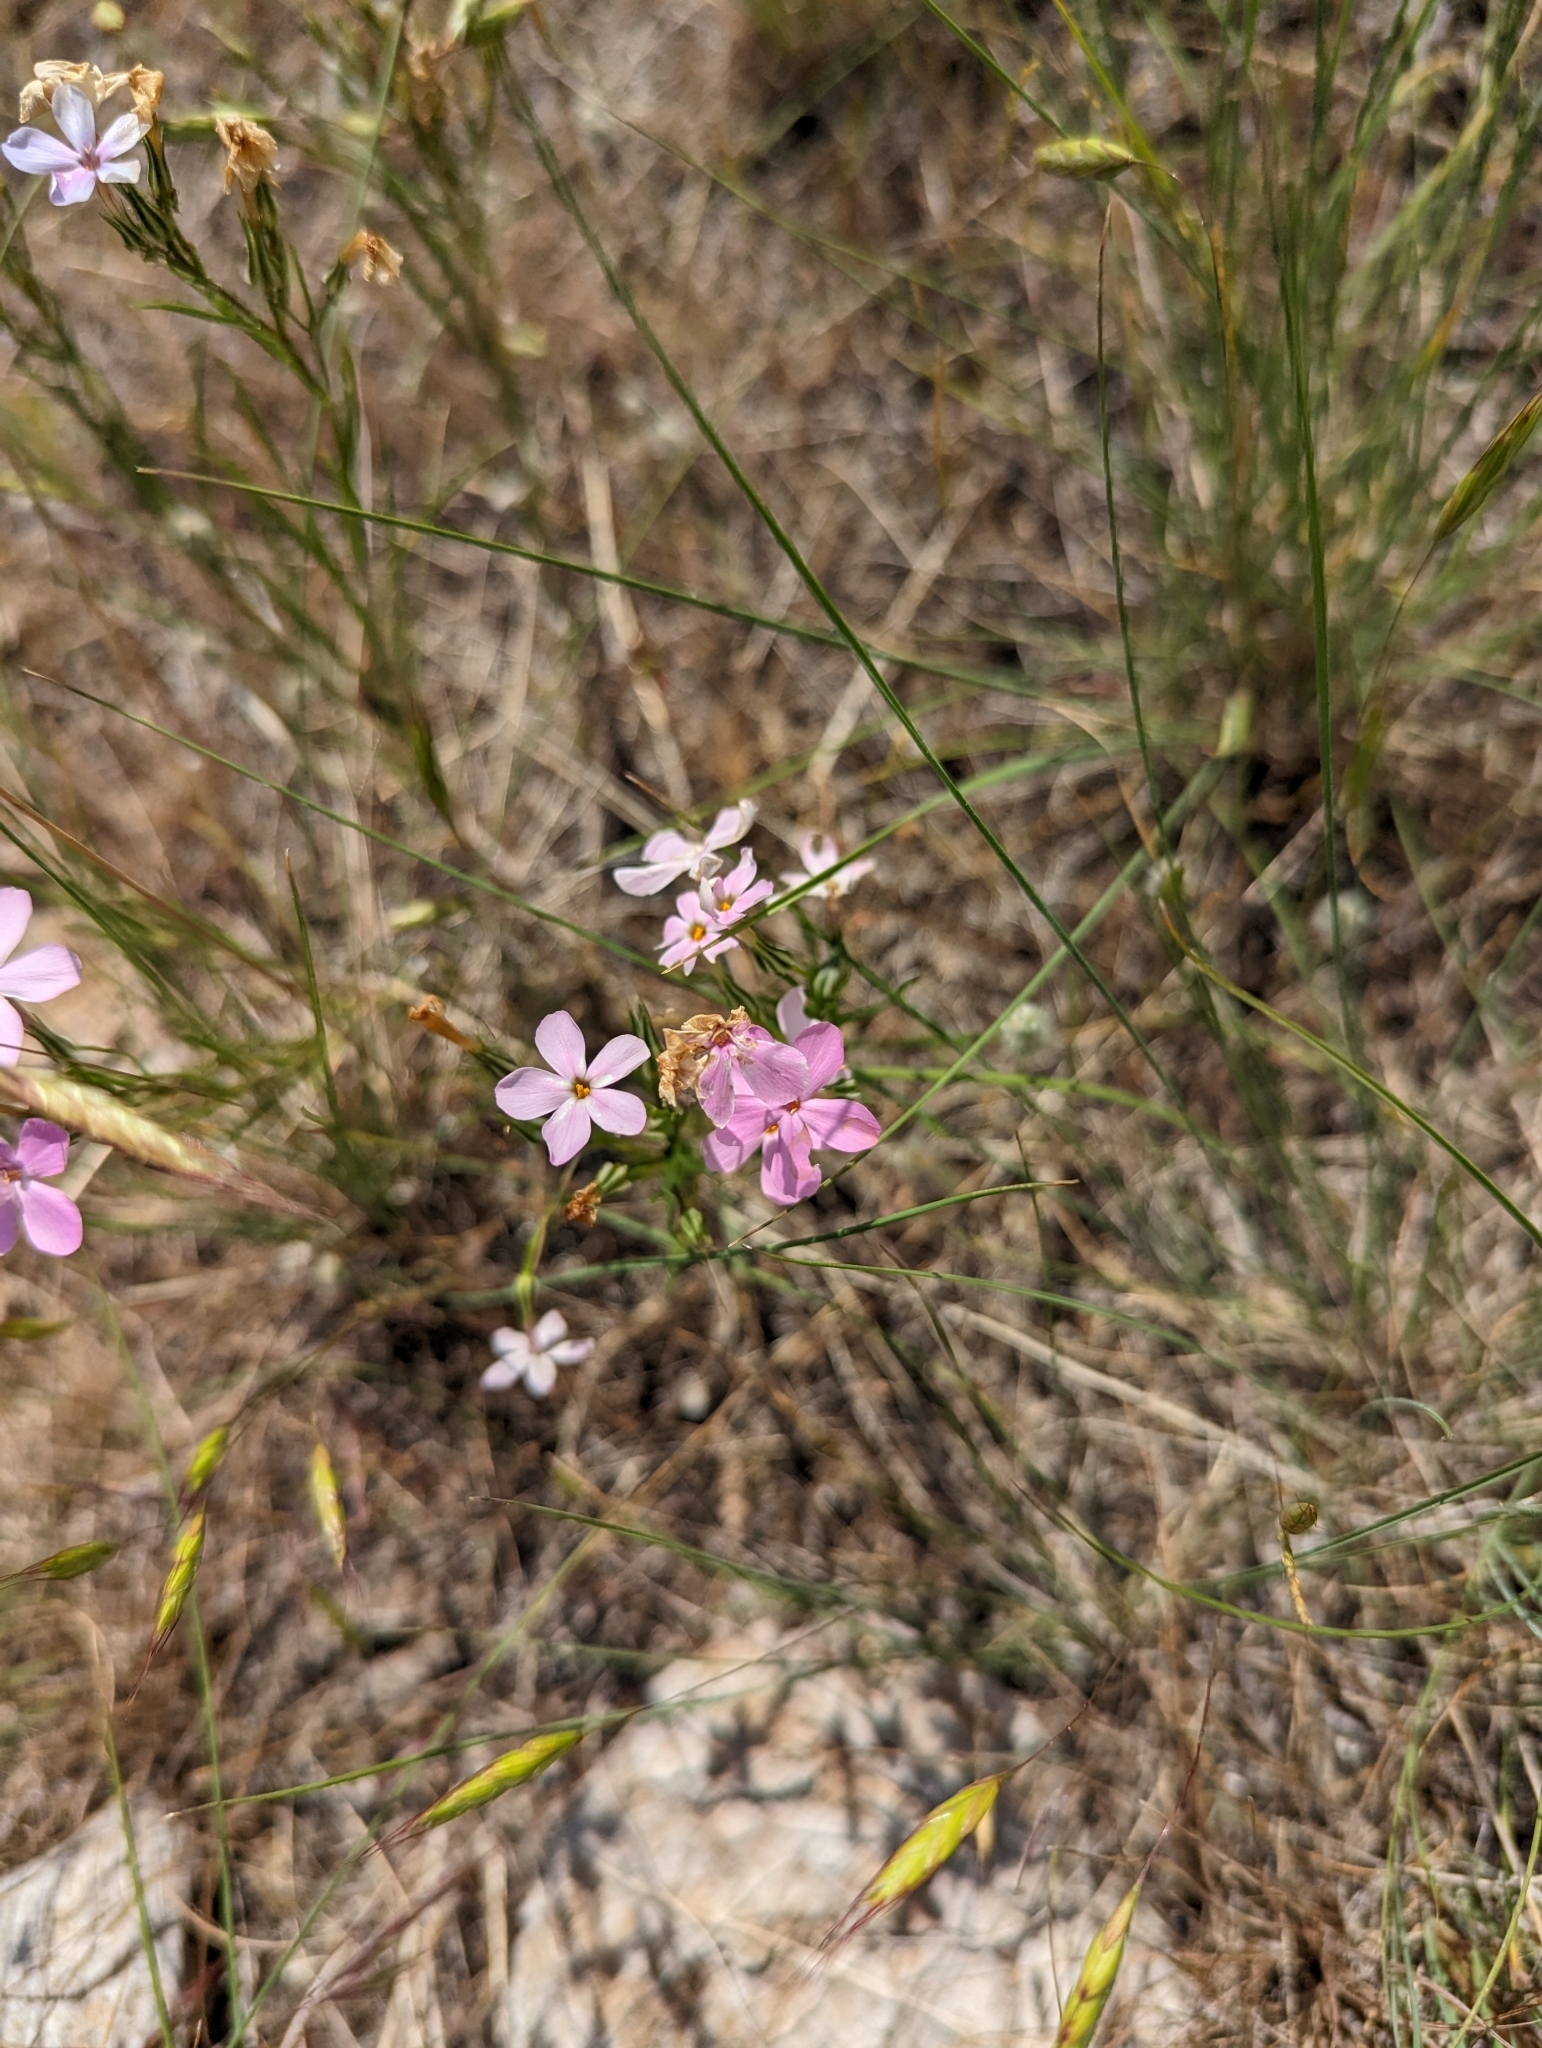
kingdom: Plantae
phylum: Tracheophyta
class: Magnoliopsida
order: Ericales
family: Polemoniaceae
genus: Phlox
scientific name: Phlox longifolia
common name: Longleaf phlox
